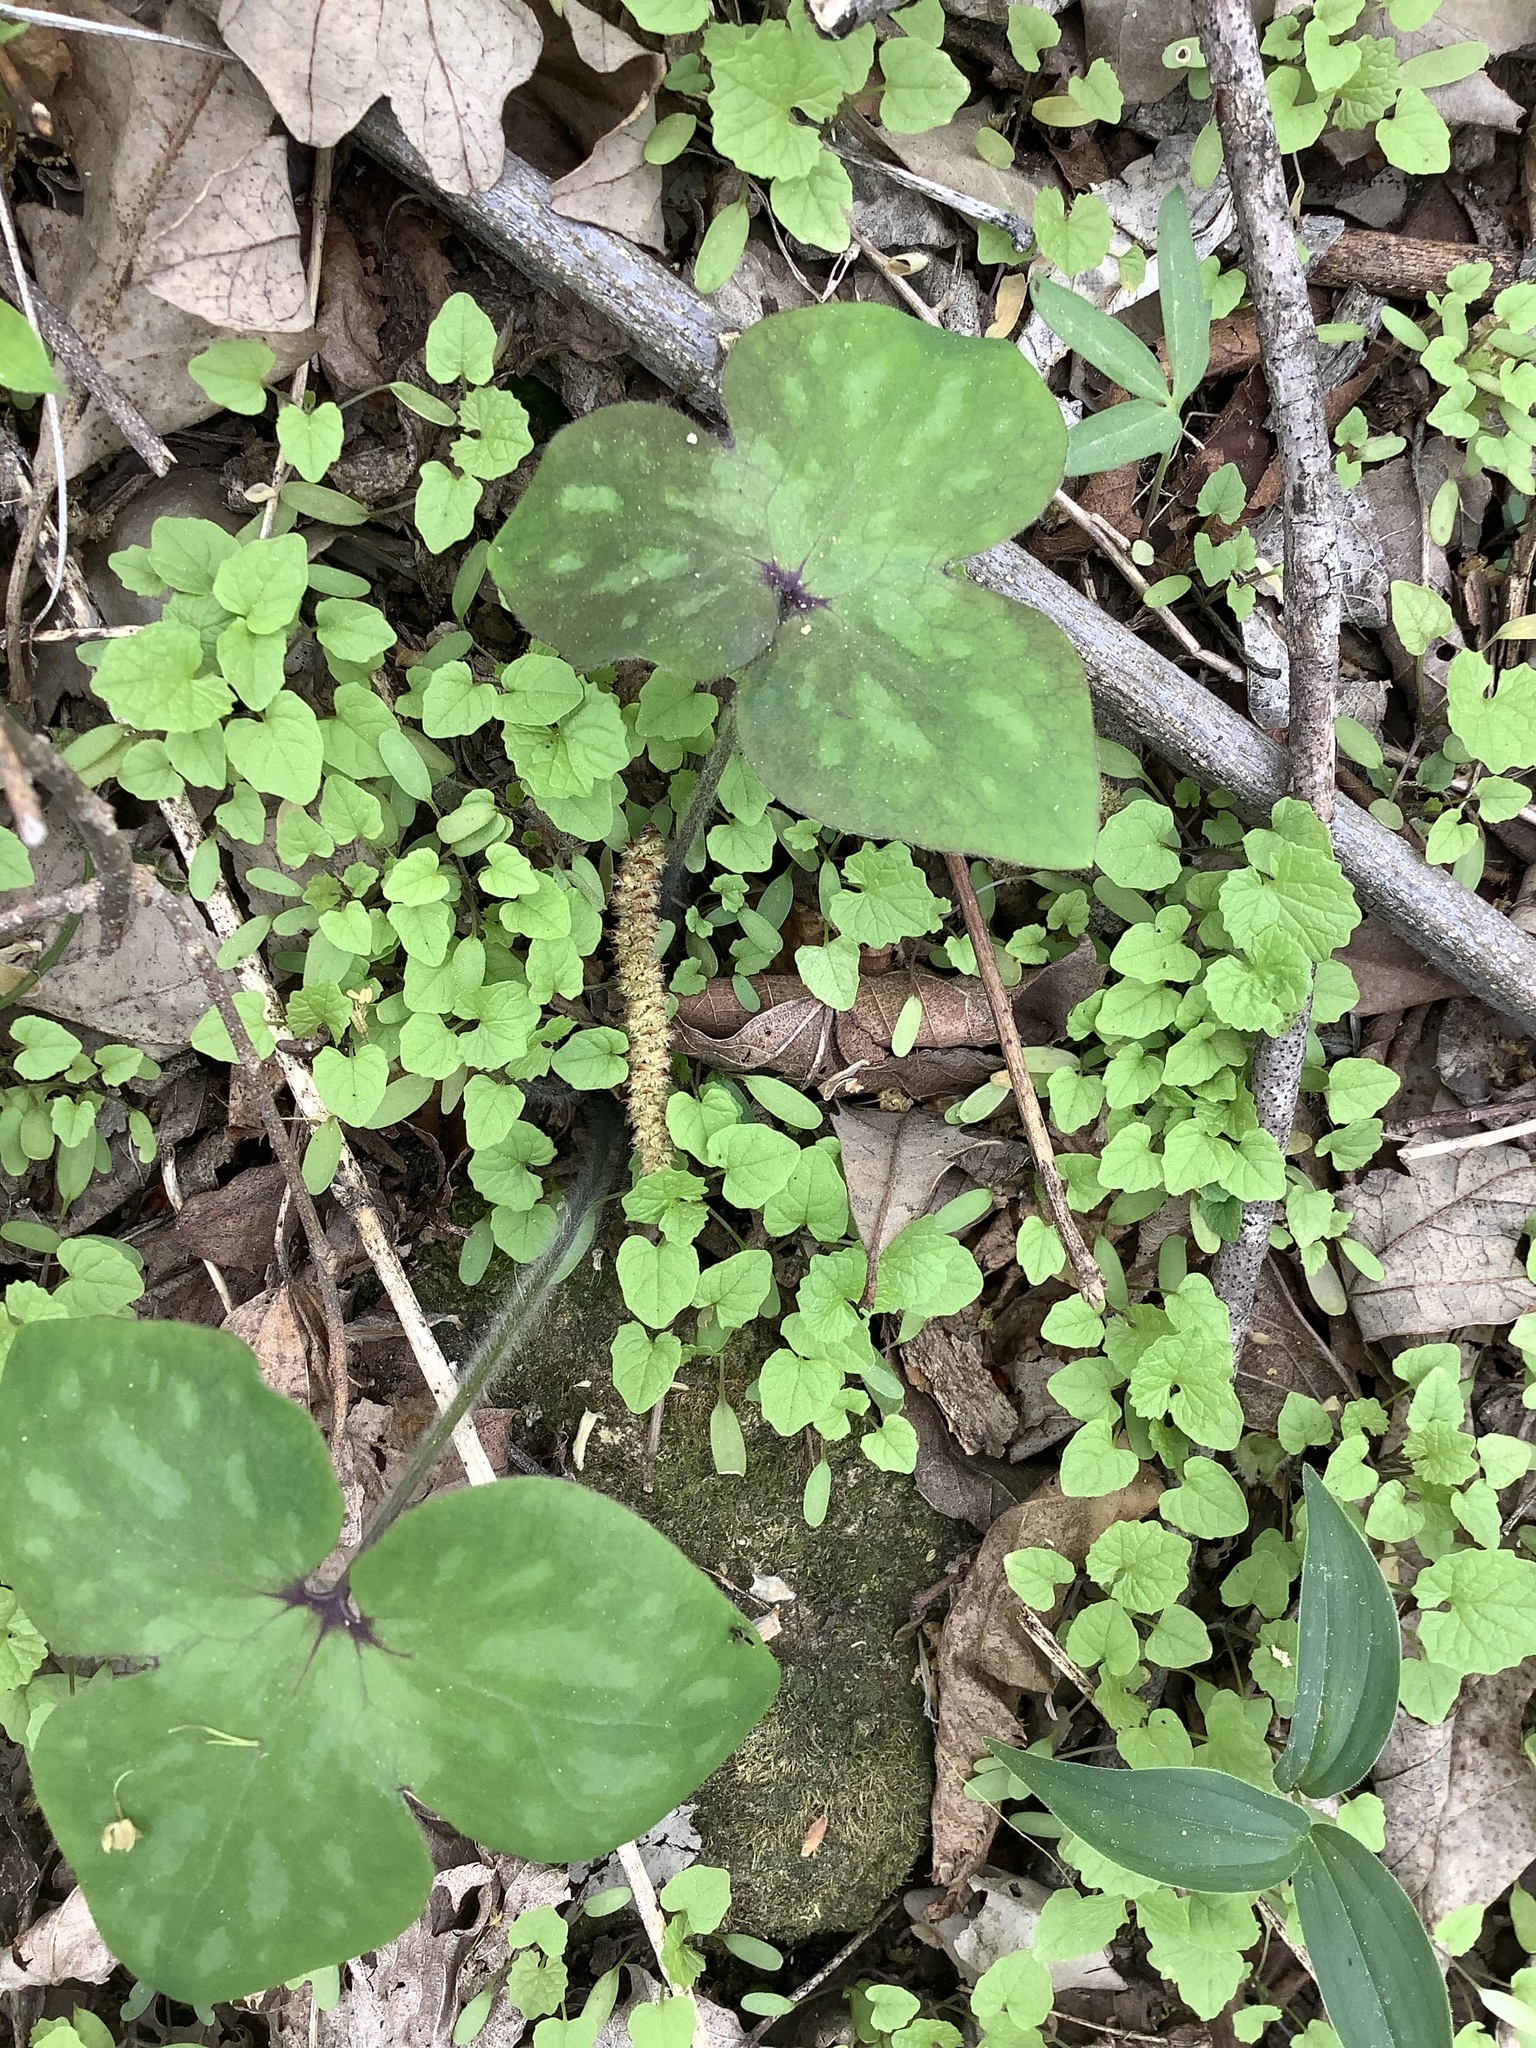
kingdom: Plantae
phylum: Tracheophyta
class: Magnoliopsida
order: Ranunculales
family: Ranunculaceae
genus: Hepatica
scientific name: Hepatica acutiloba
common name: Sharp-lobed hepatica
